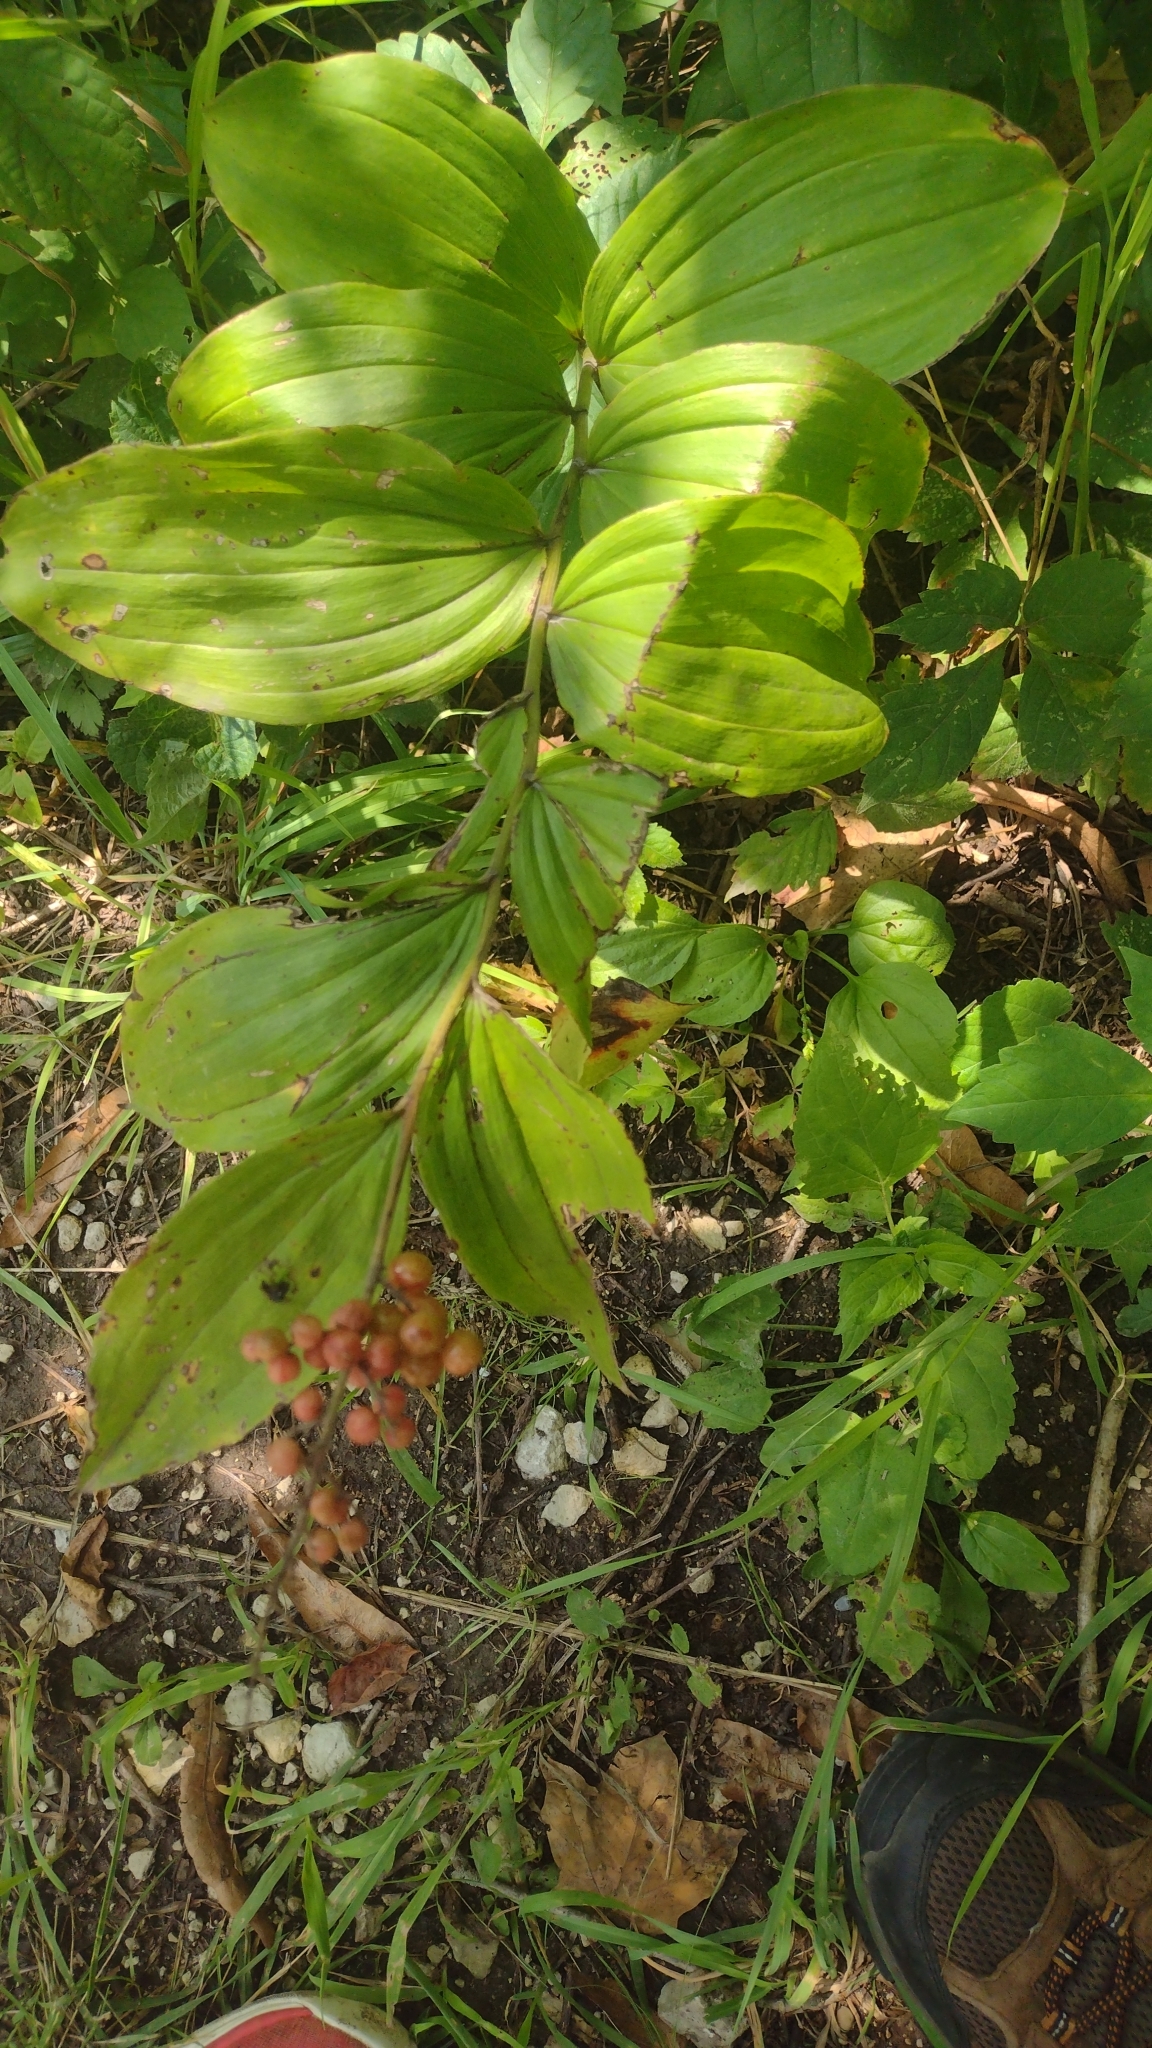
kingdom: Plantae
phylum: Tracheophyta
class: Liliopsida
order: Asparagales
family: Asparagaceae
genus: Maianthemum
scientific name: Maianthemum racemosum
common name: False spikenard
